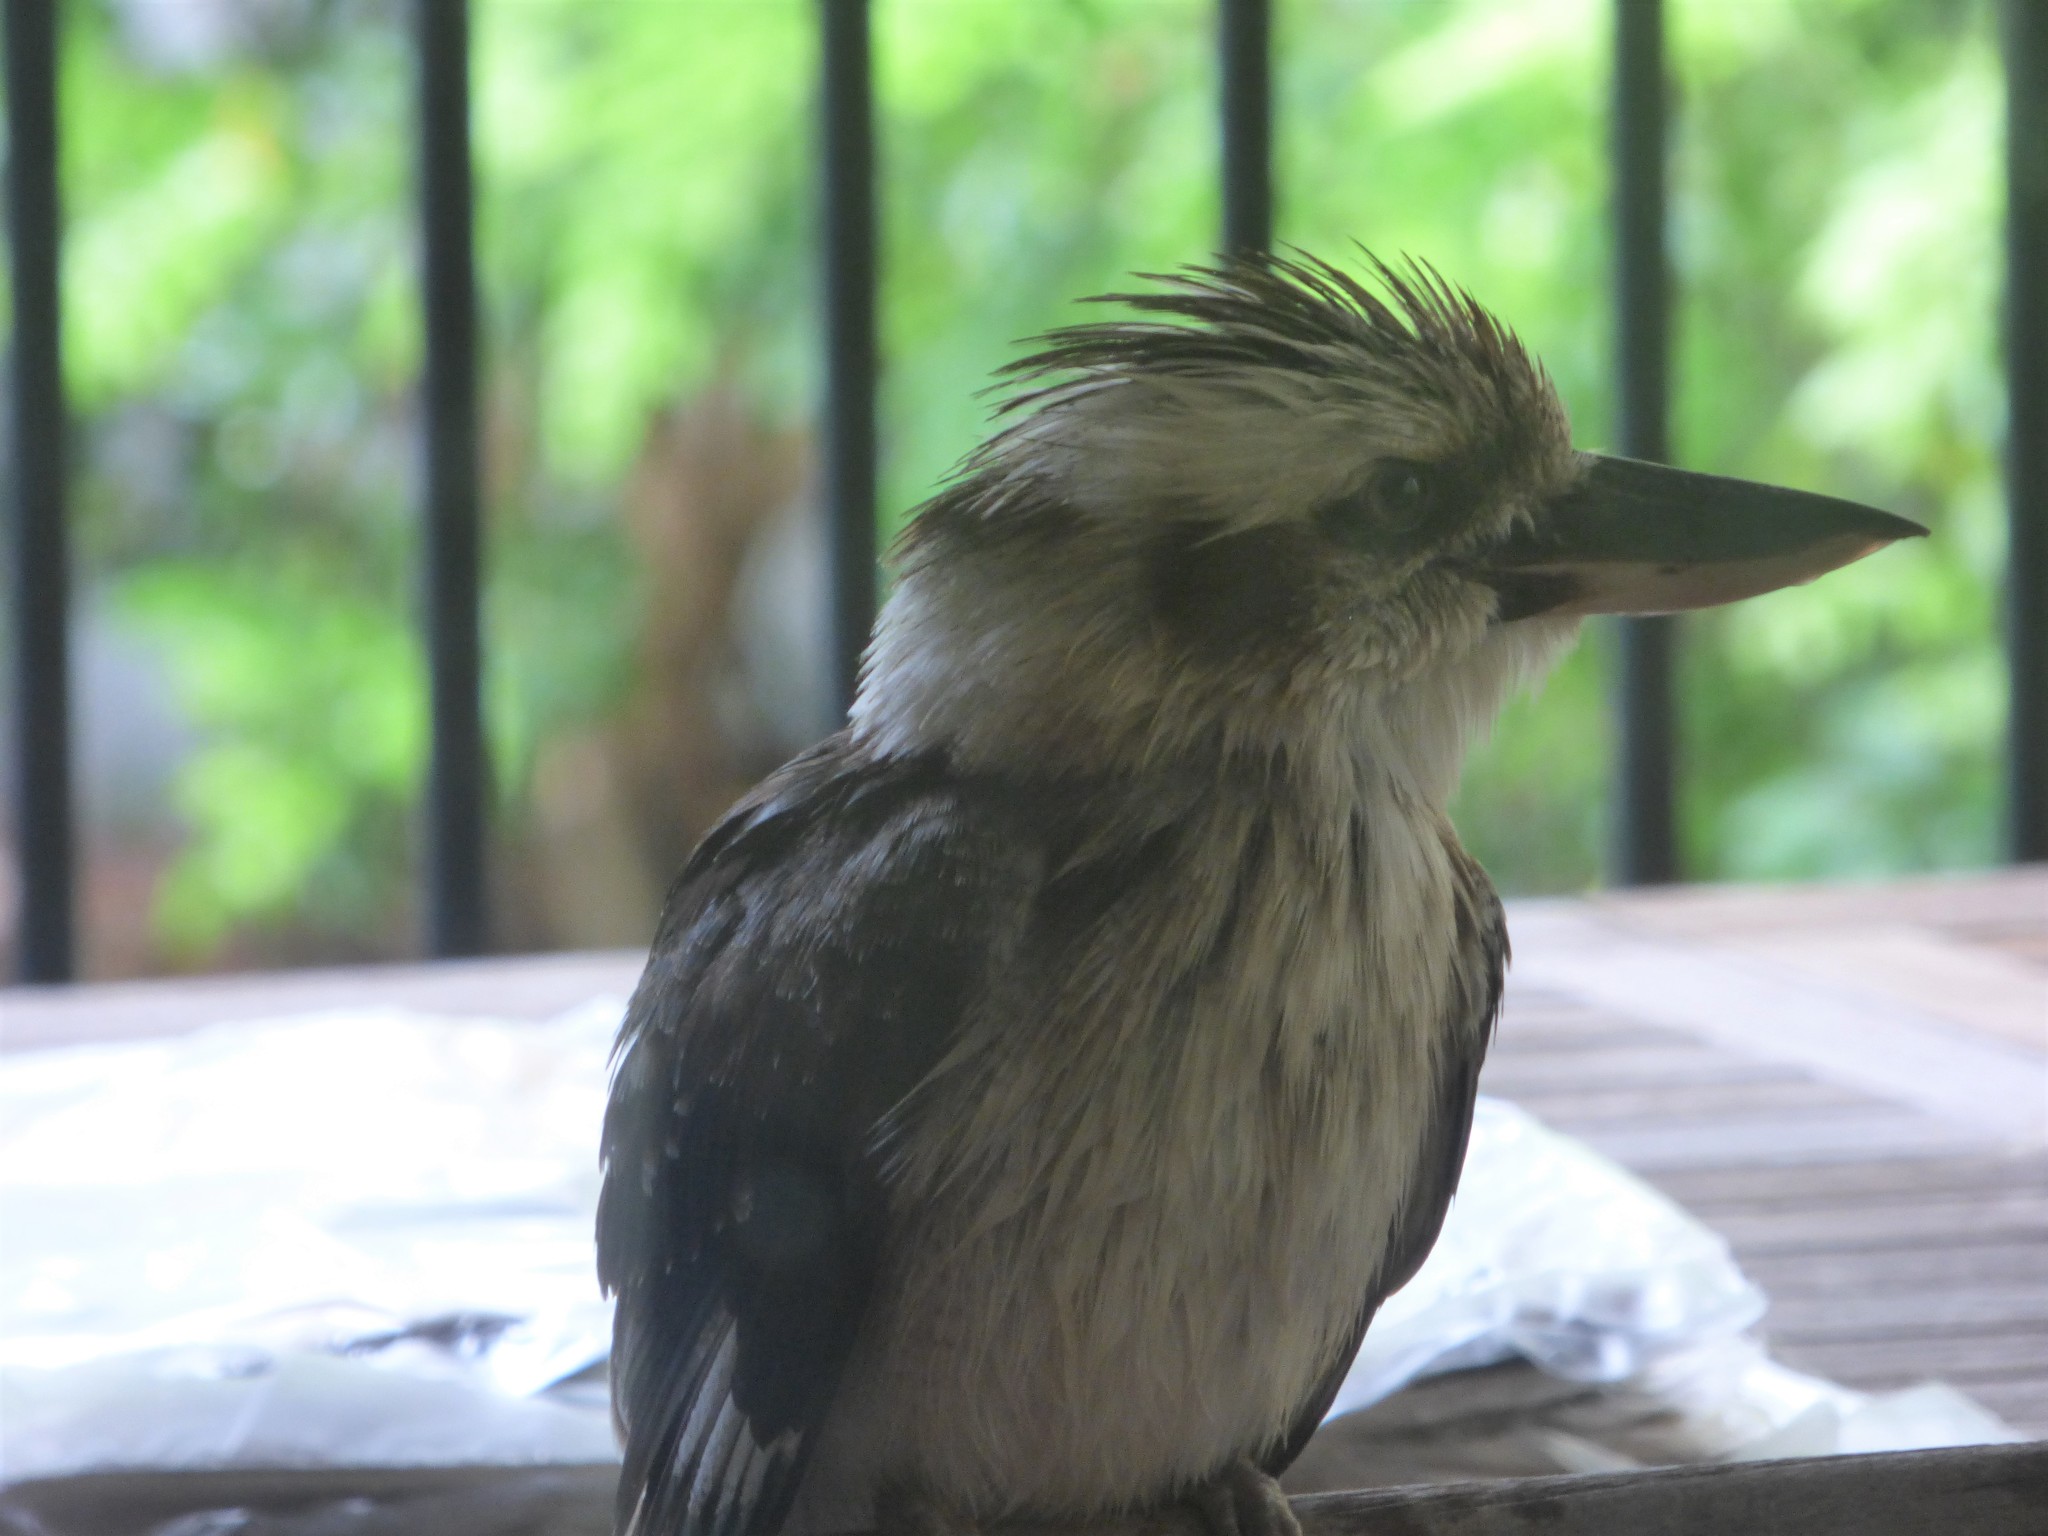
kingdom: Animalia
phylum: Chordata
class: Aves
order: Coraciiformes
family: Alcedinidae
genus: Dacelo
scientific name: Dacelo novaeguineae
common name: Laughing kookaburra
